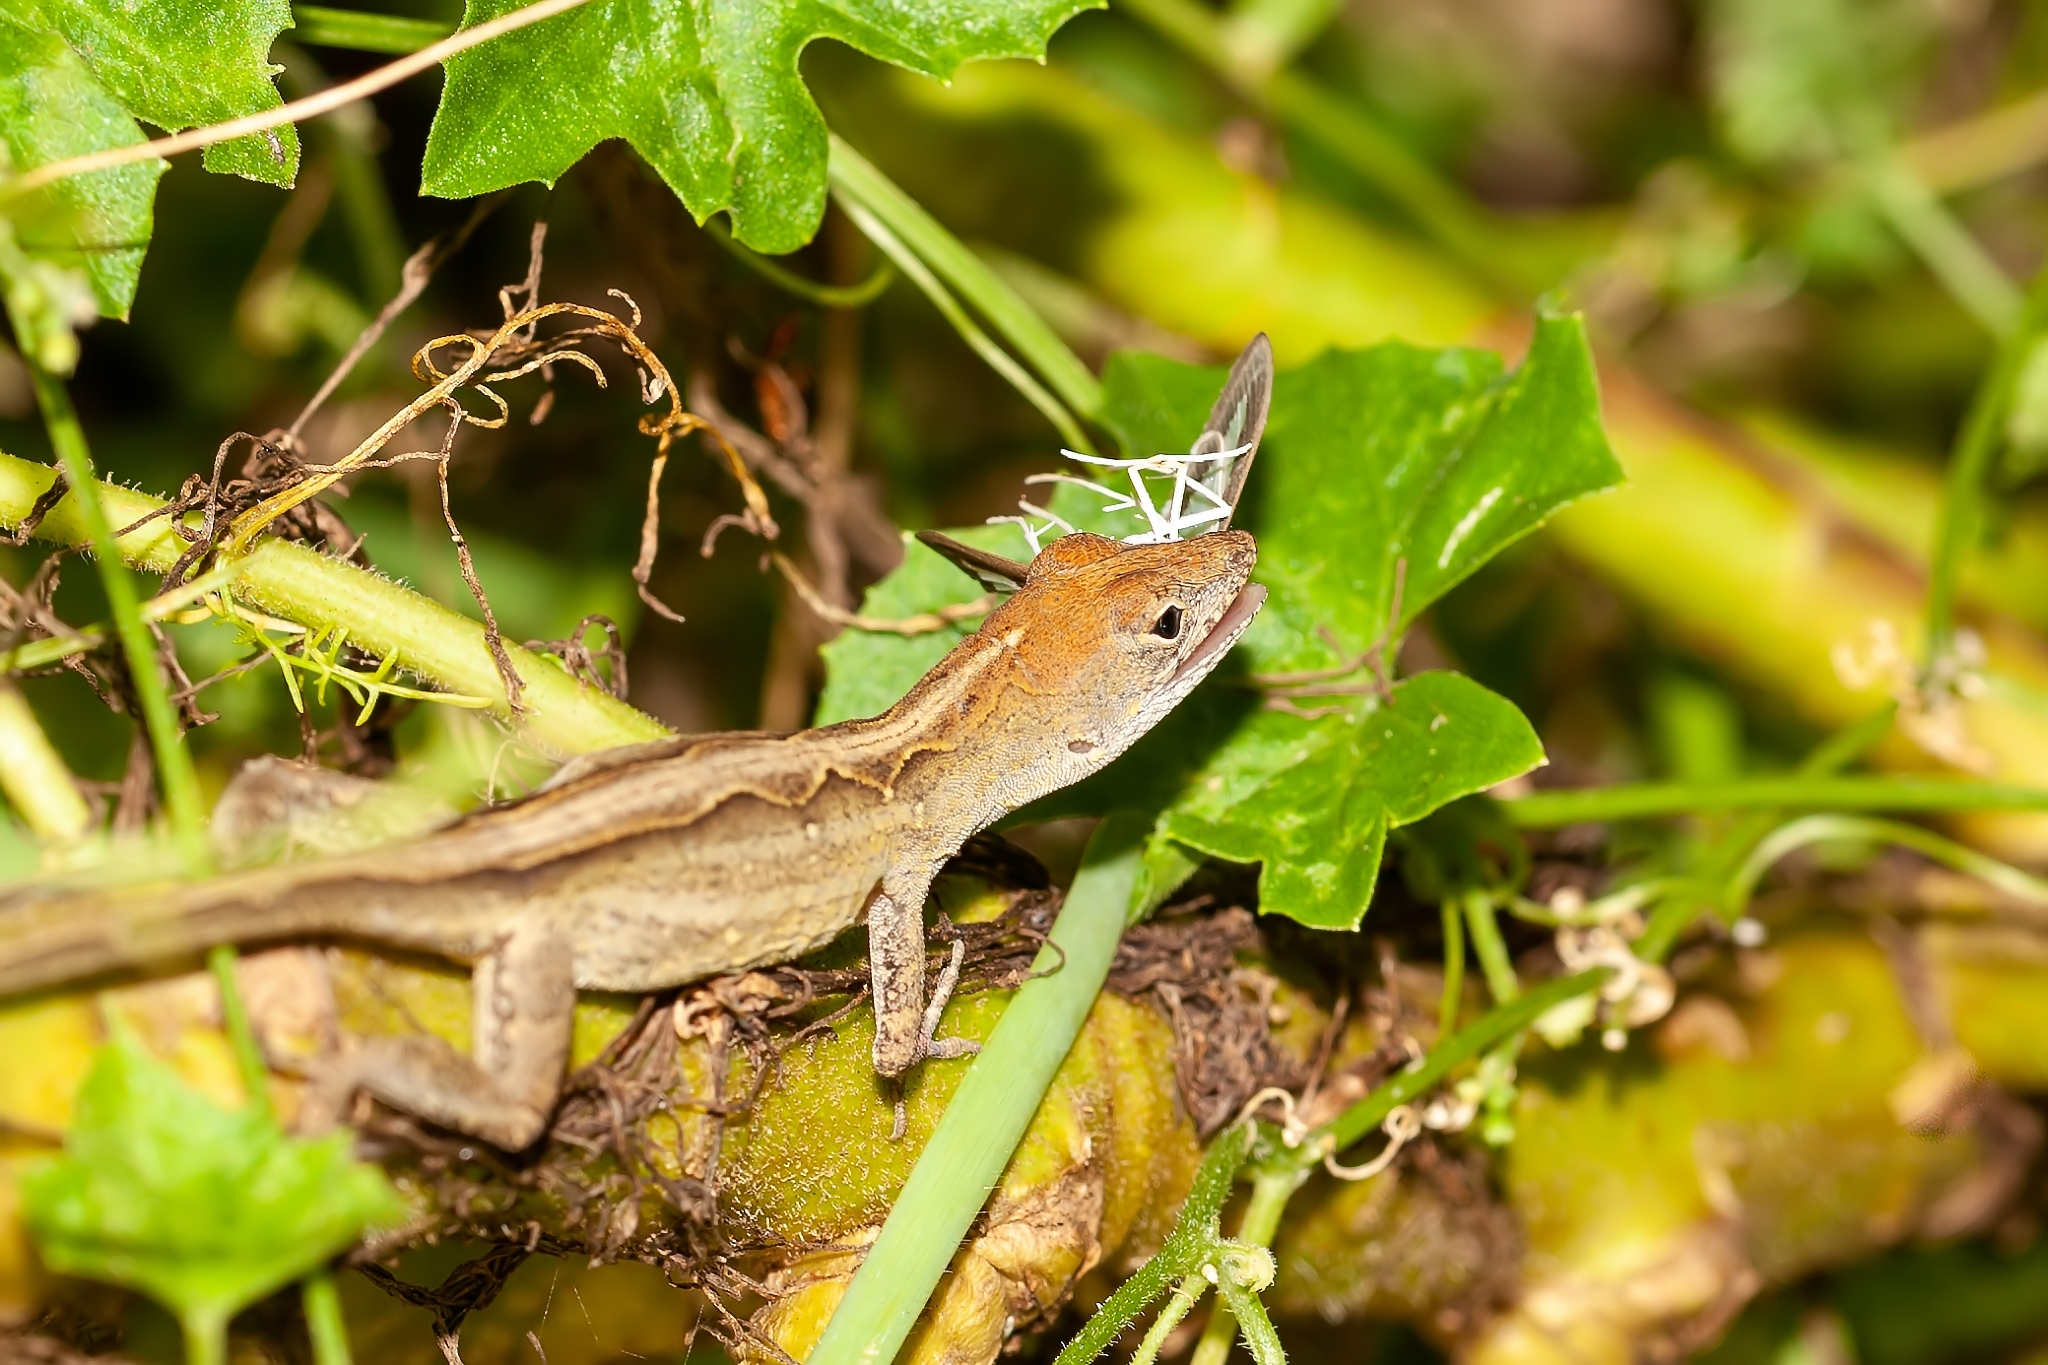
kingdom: Animalia
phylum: Chordata
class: Squamata
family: Dactyloidae
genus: Anolis
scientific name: Anolis sagrei
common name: Brown anole
